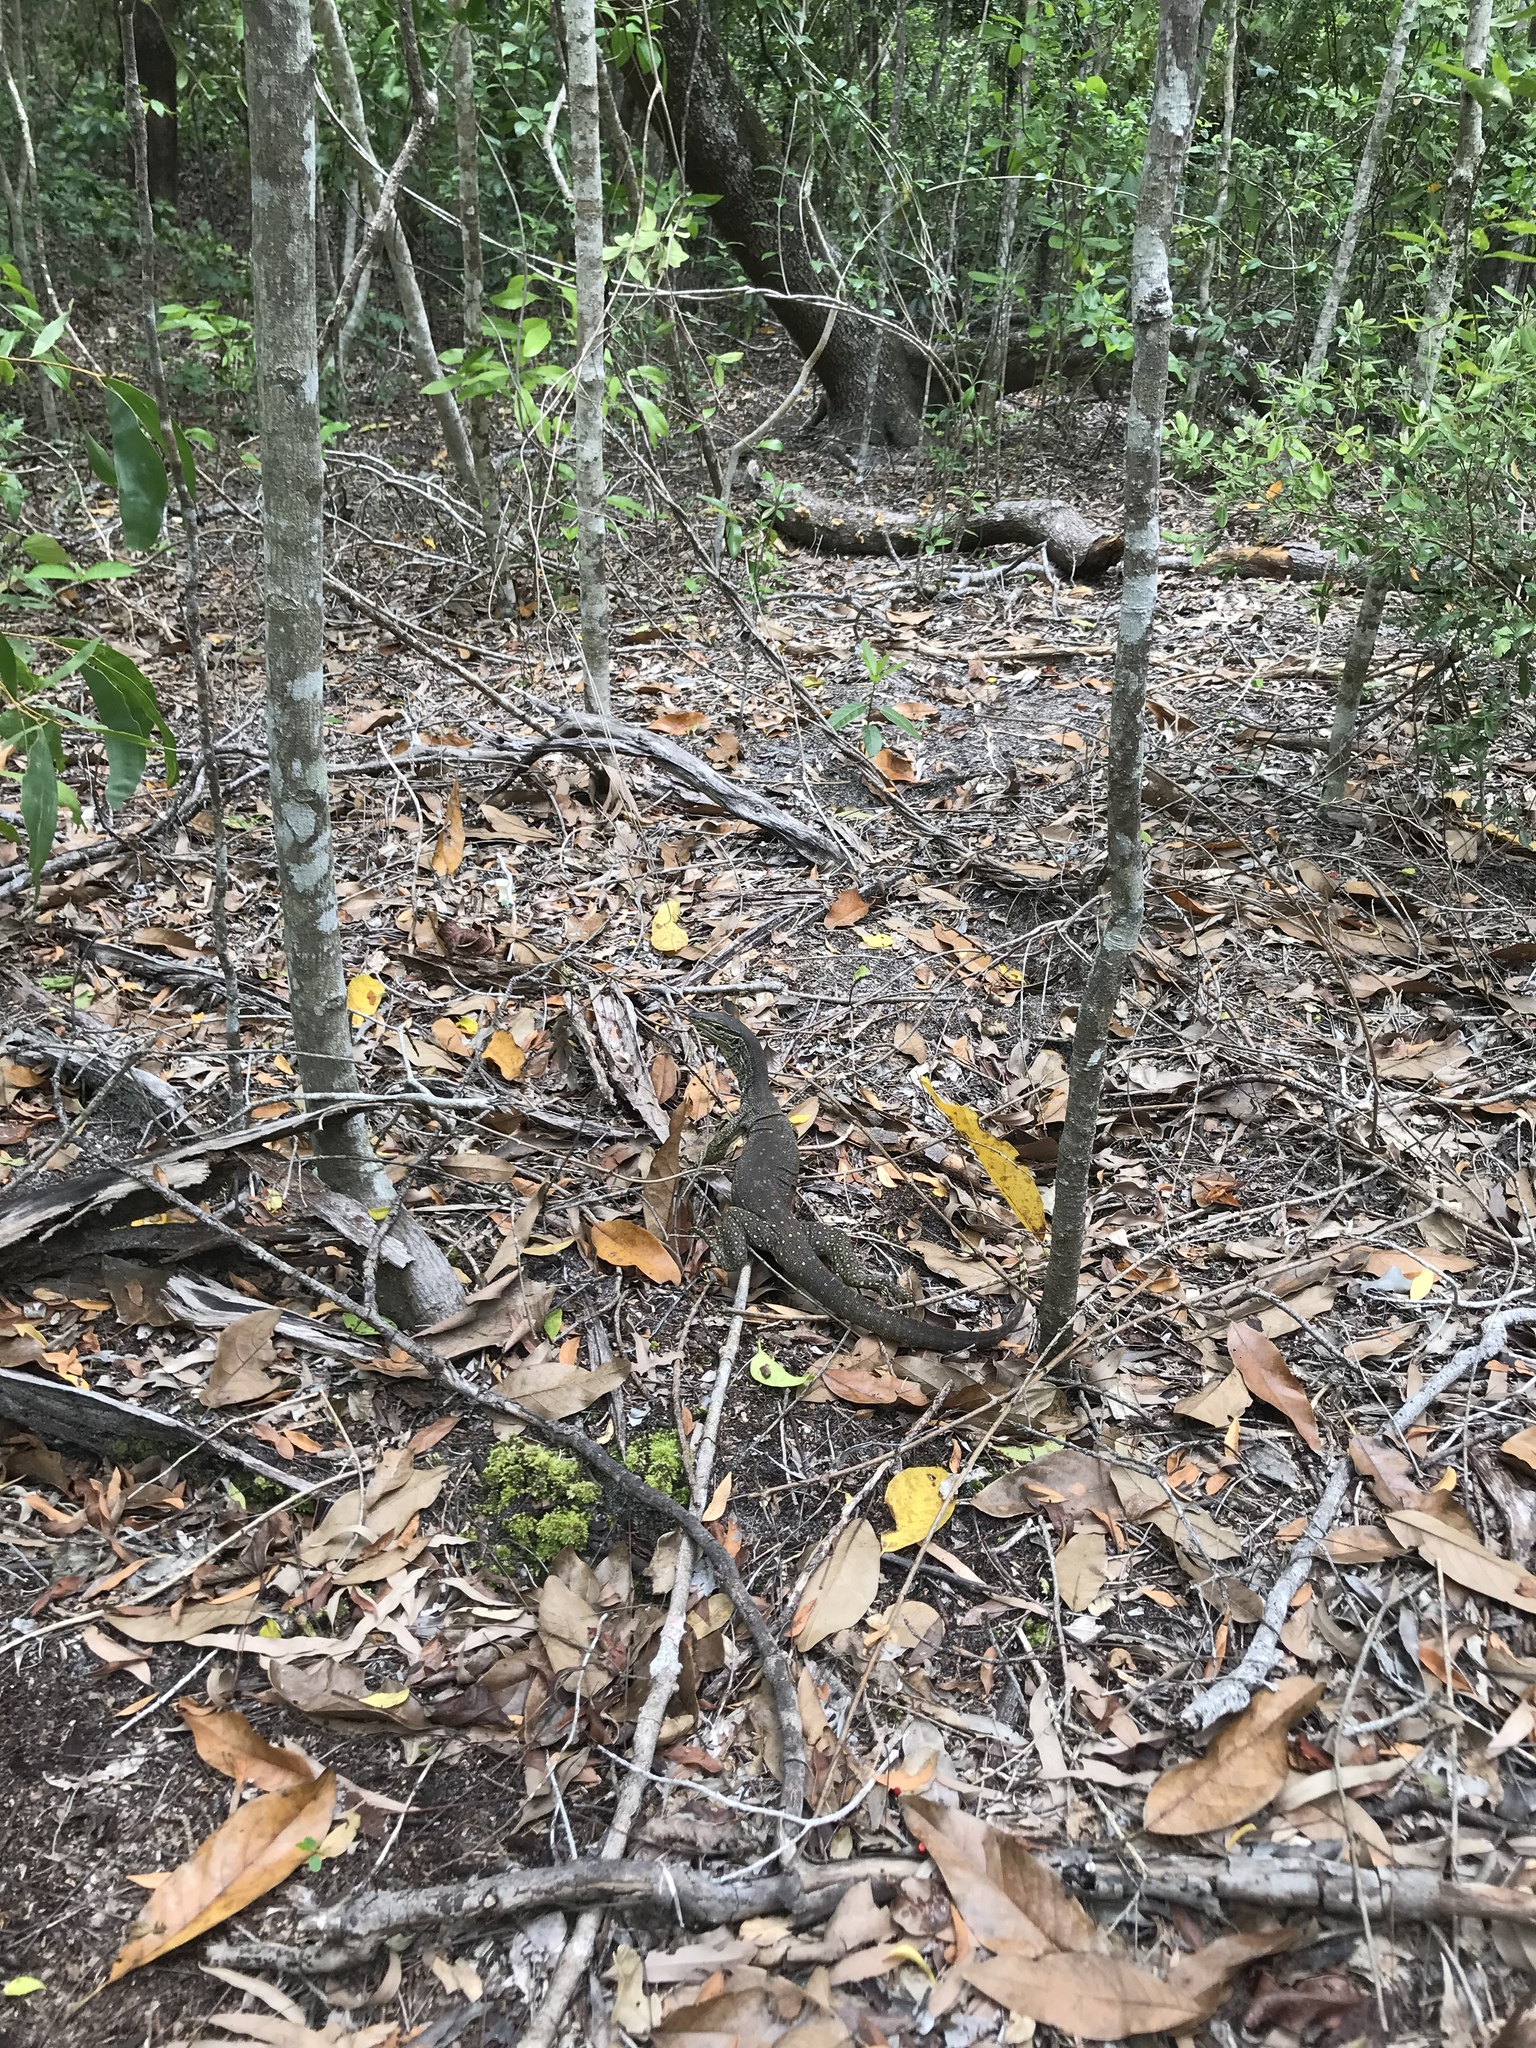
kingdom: Animalia
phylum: Chordata
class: Squamata
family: Varanidae
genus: Varanus
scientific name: Varanus panoptes
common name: Yellow-spotted monitor
